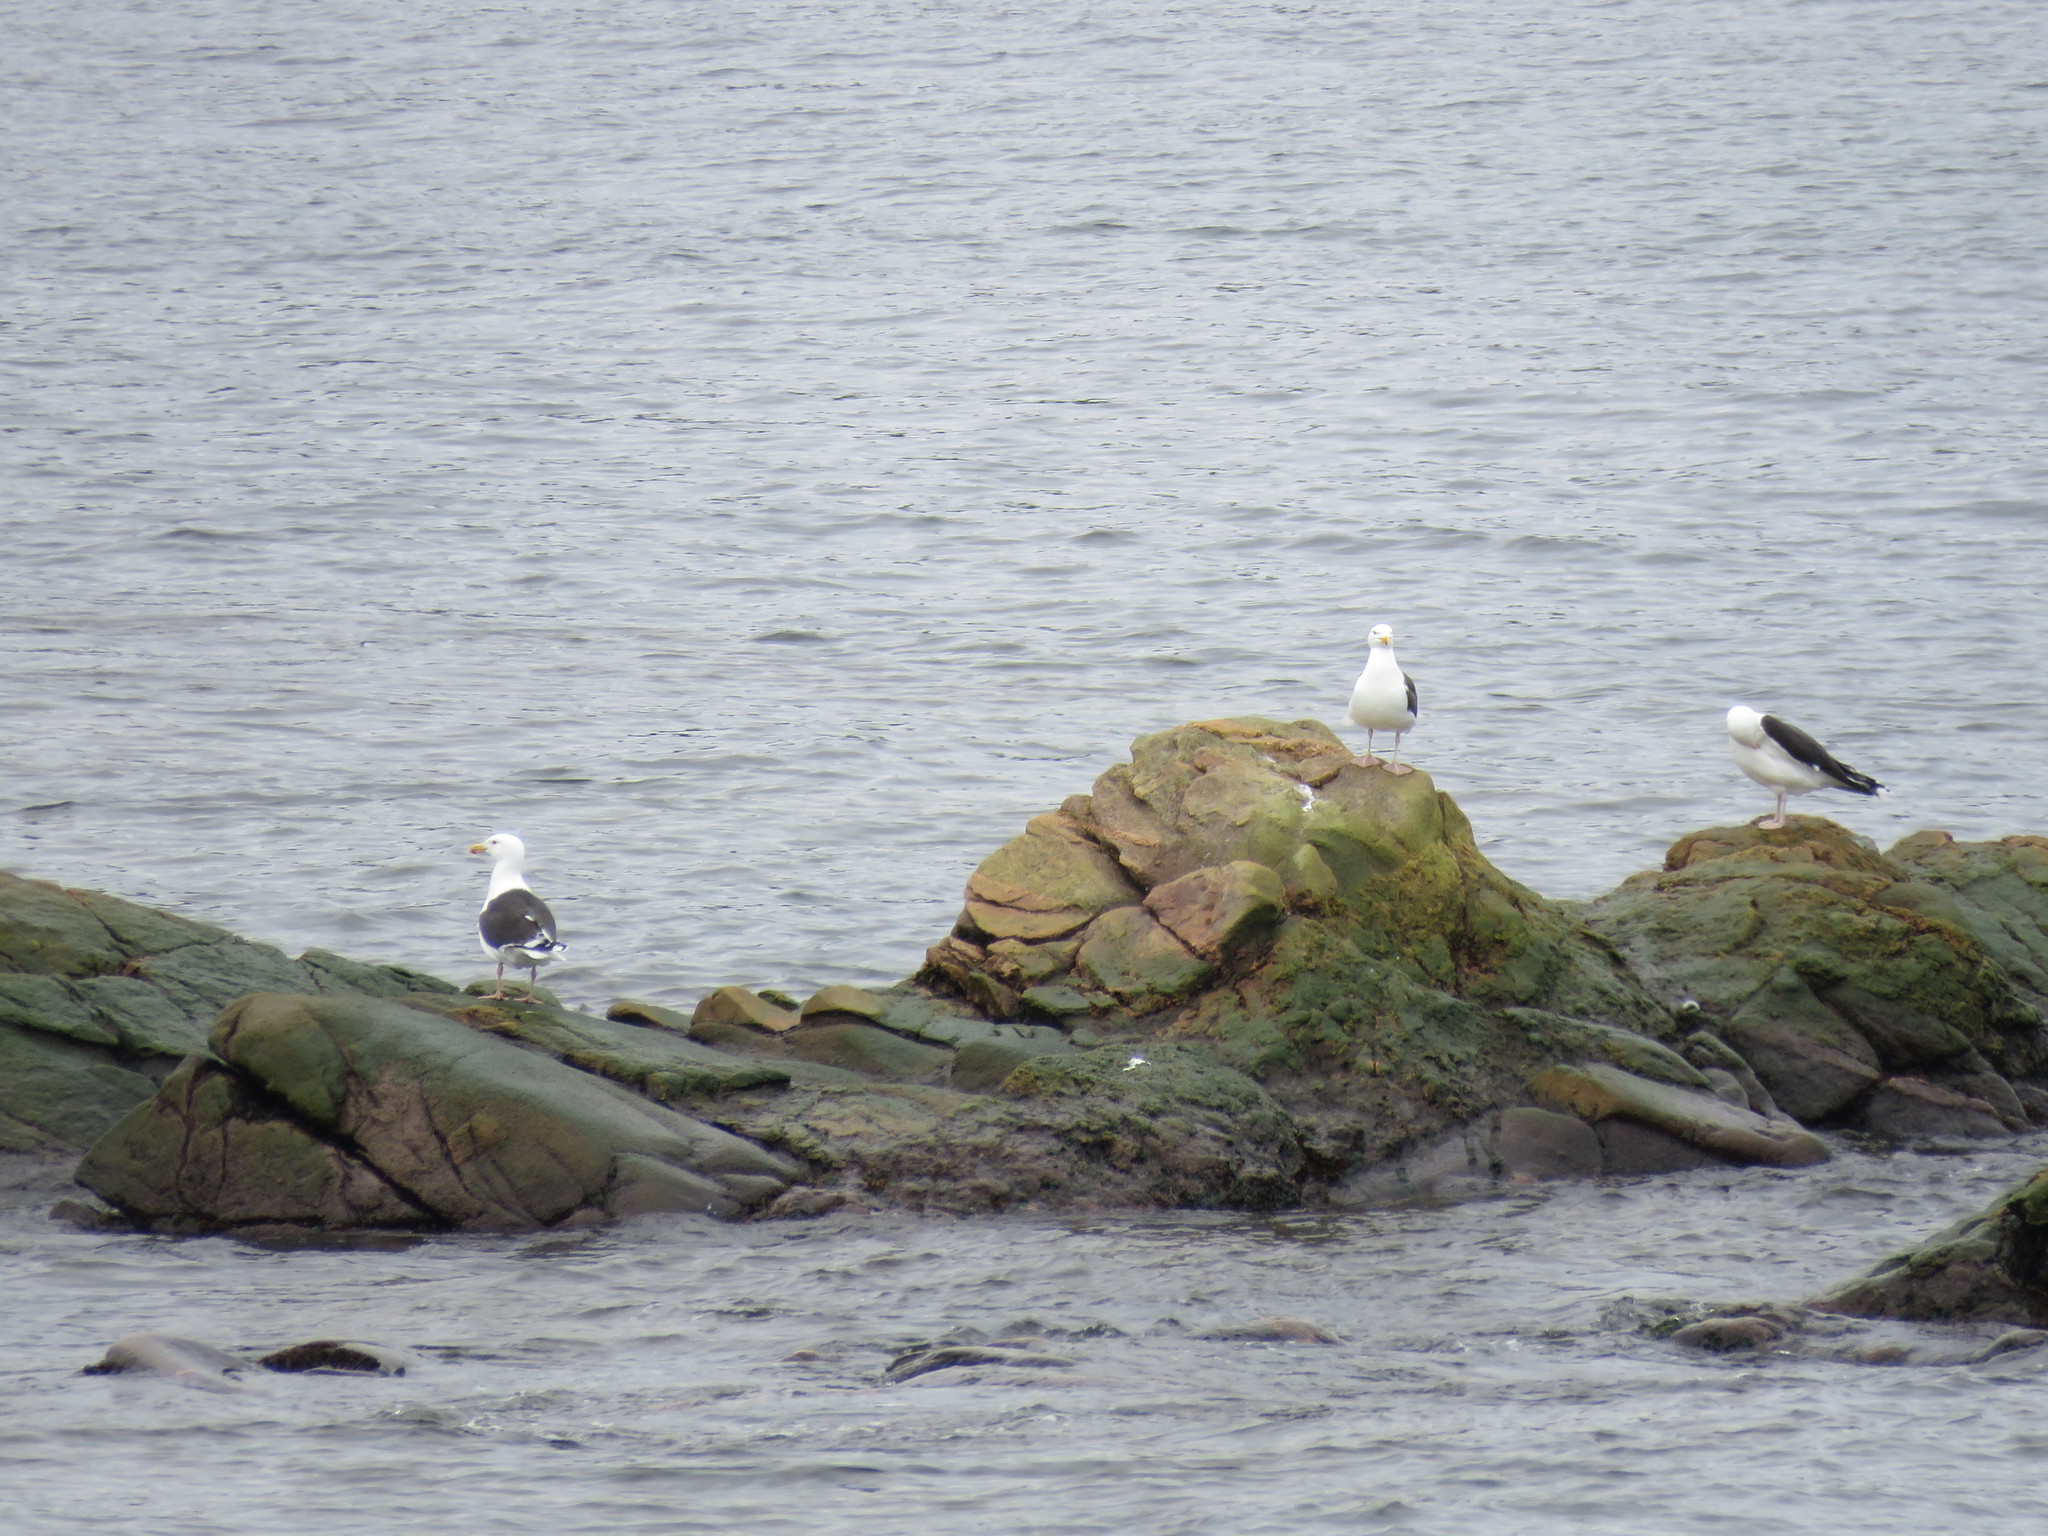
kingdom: Animalia
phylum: Chordata
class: Aves
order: Charadriiformes
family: Laridae
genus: Larus
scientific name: Larus marinus
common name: Great black-backed gull
